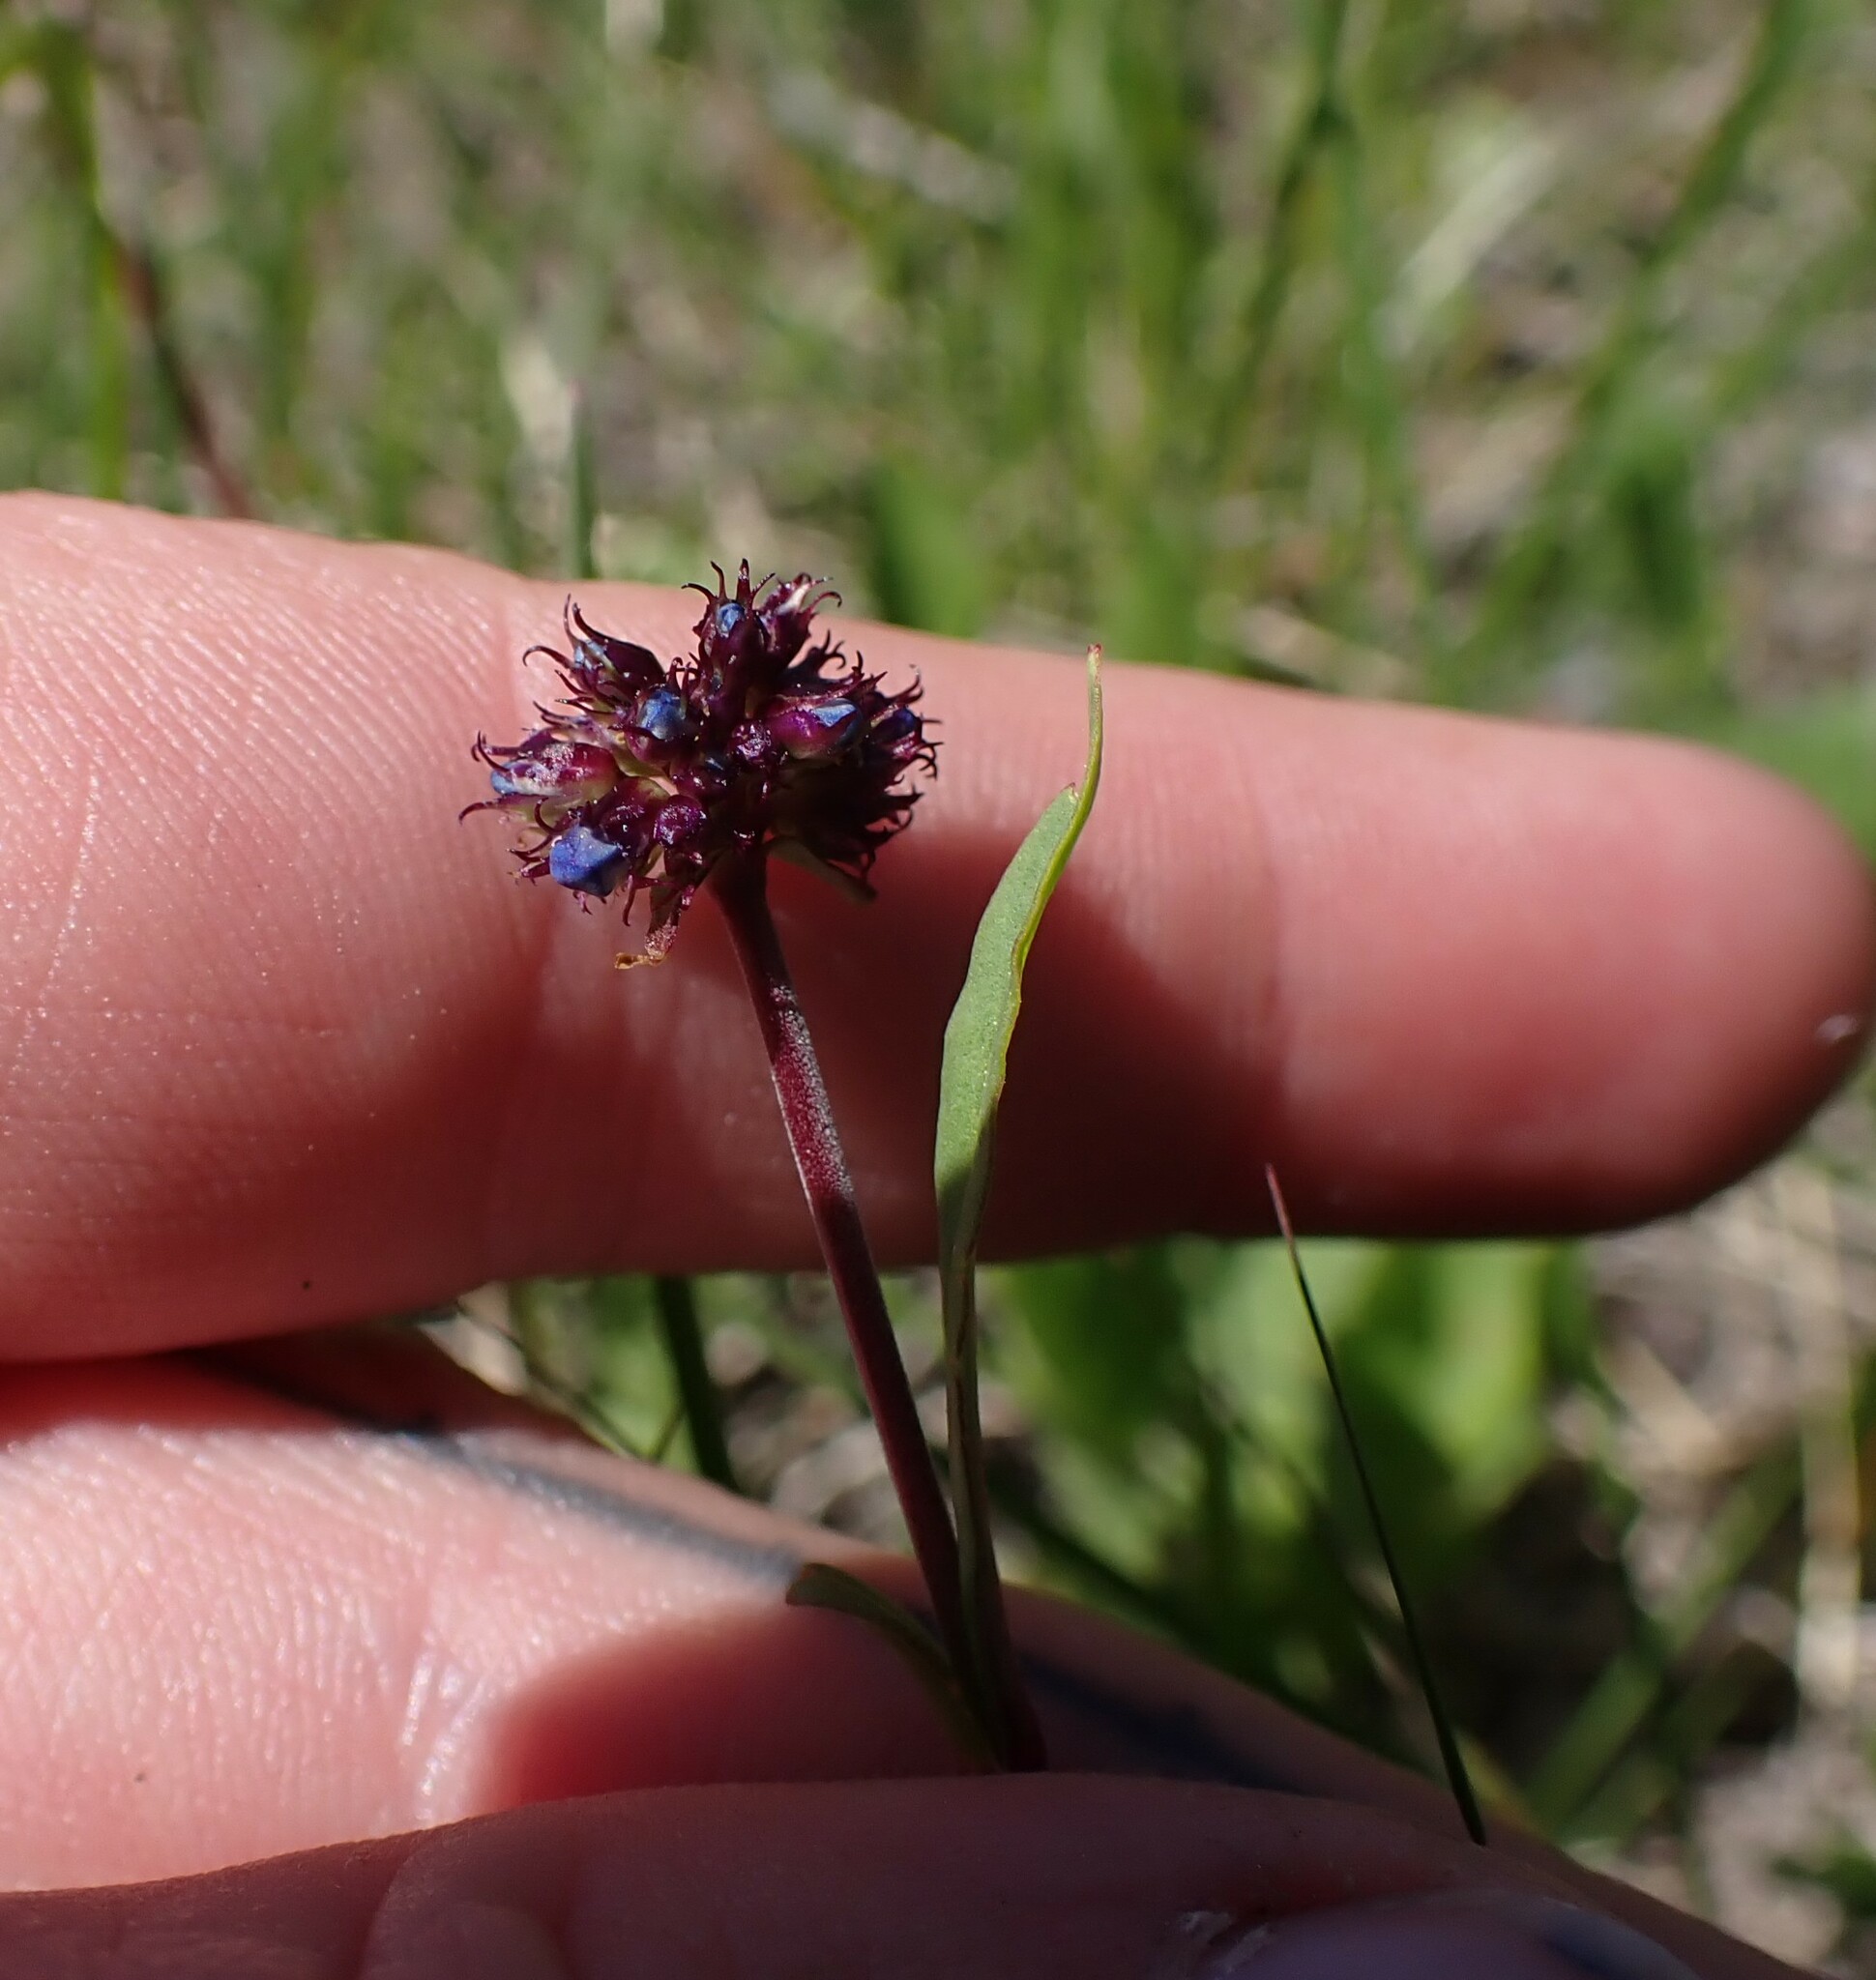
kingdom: Plantae
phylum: Tracheophyta
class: Magnoliopsida
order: Lamiales
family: Plantaginaceae
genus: Penstemon
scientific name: Penstemon procerus
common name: Small-flower penstemon
